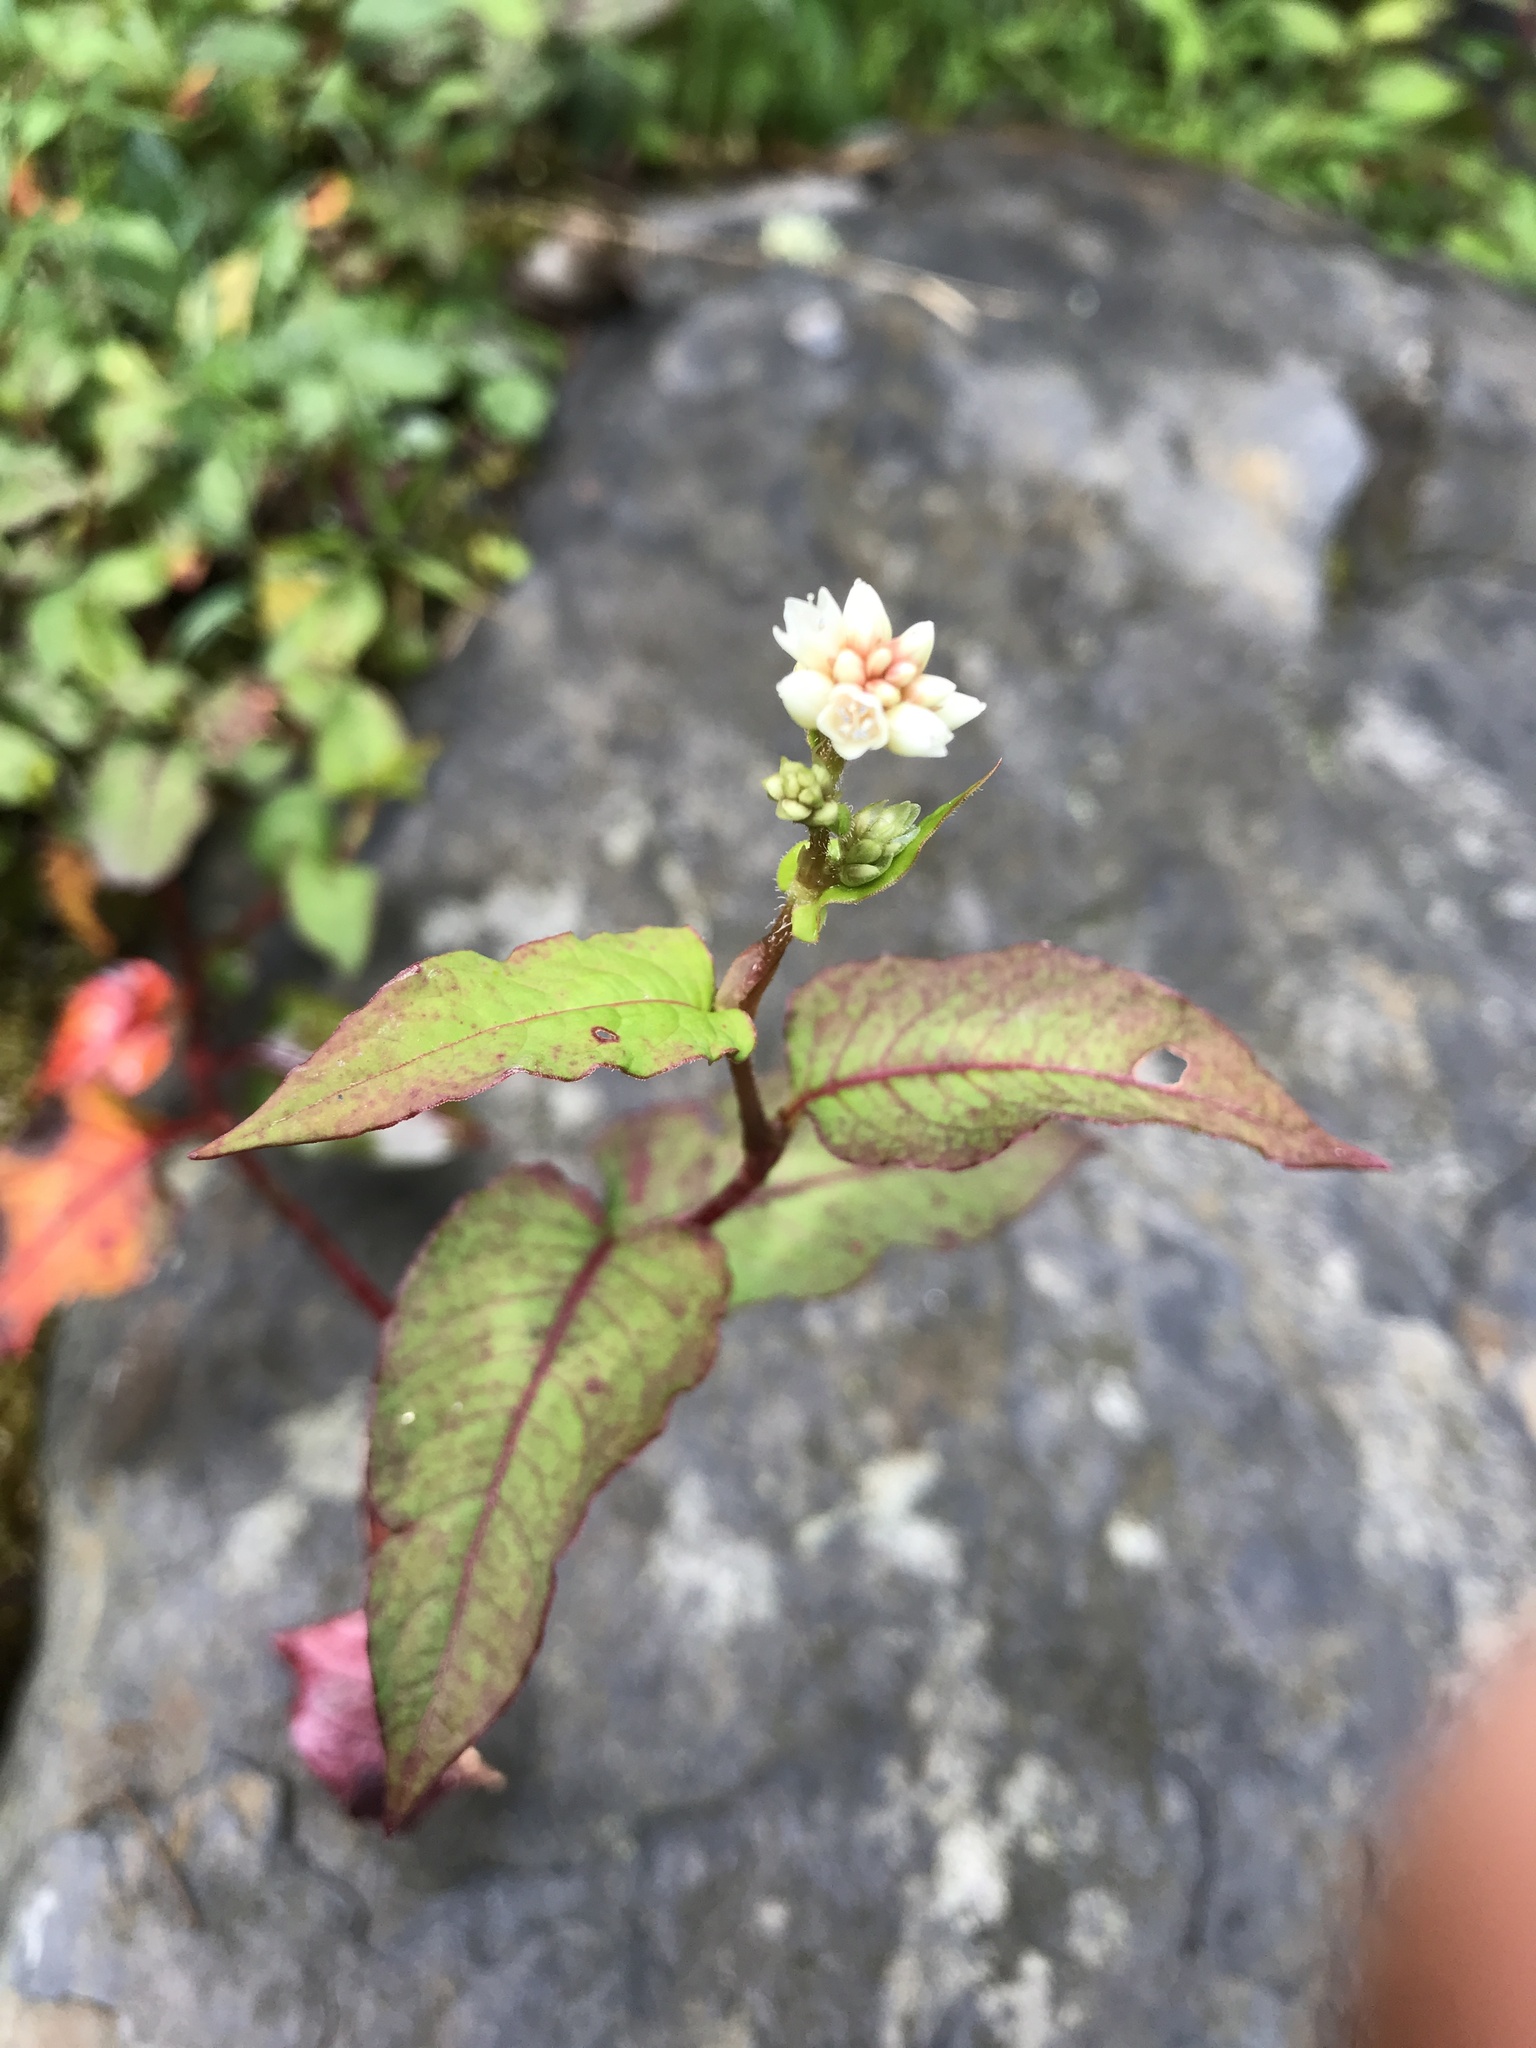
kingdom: Plantae
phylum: Tracheophyta
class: Magnoliopsida
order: Caryophyllales
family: Polygonaceae
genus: Persicaria
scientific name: Persicaria chinensis
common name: Chinese knotweed
